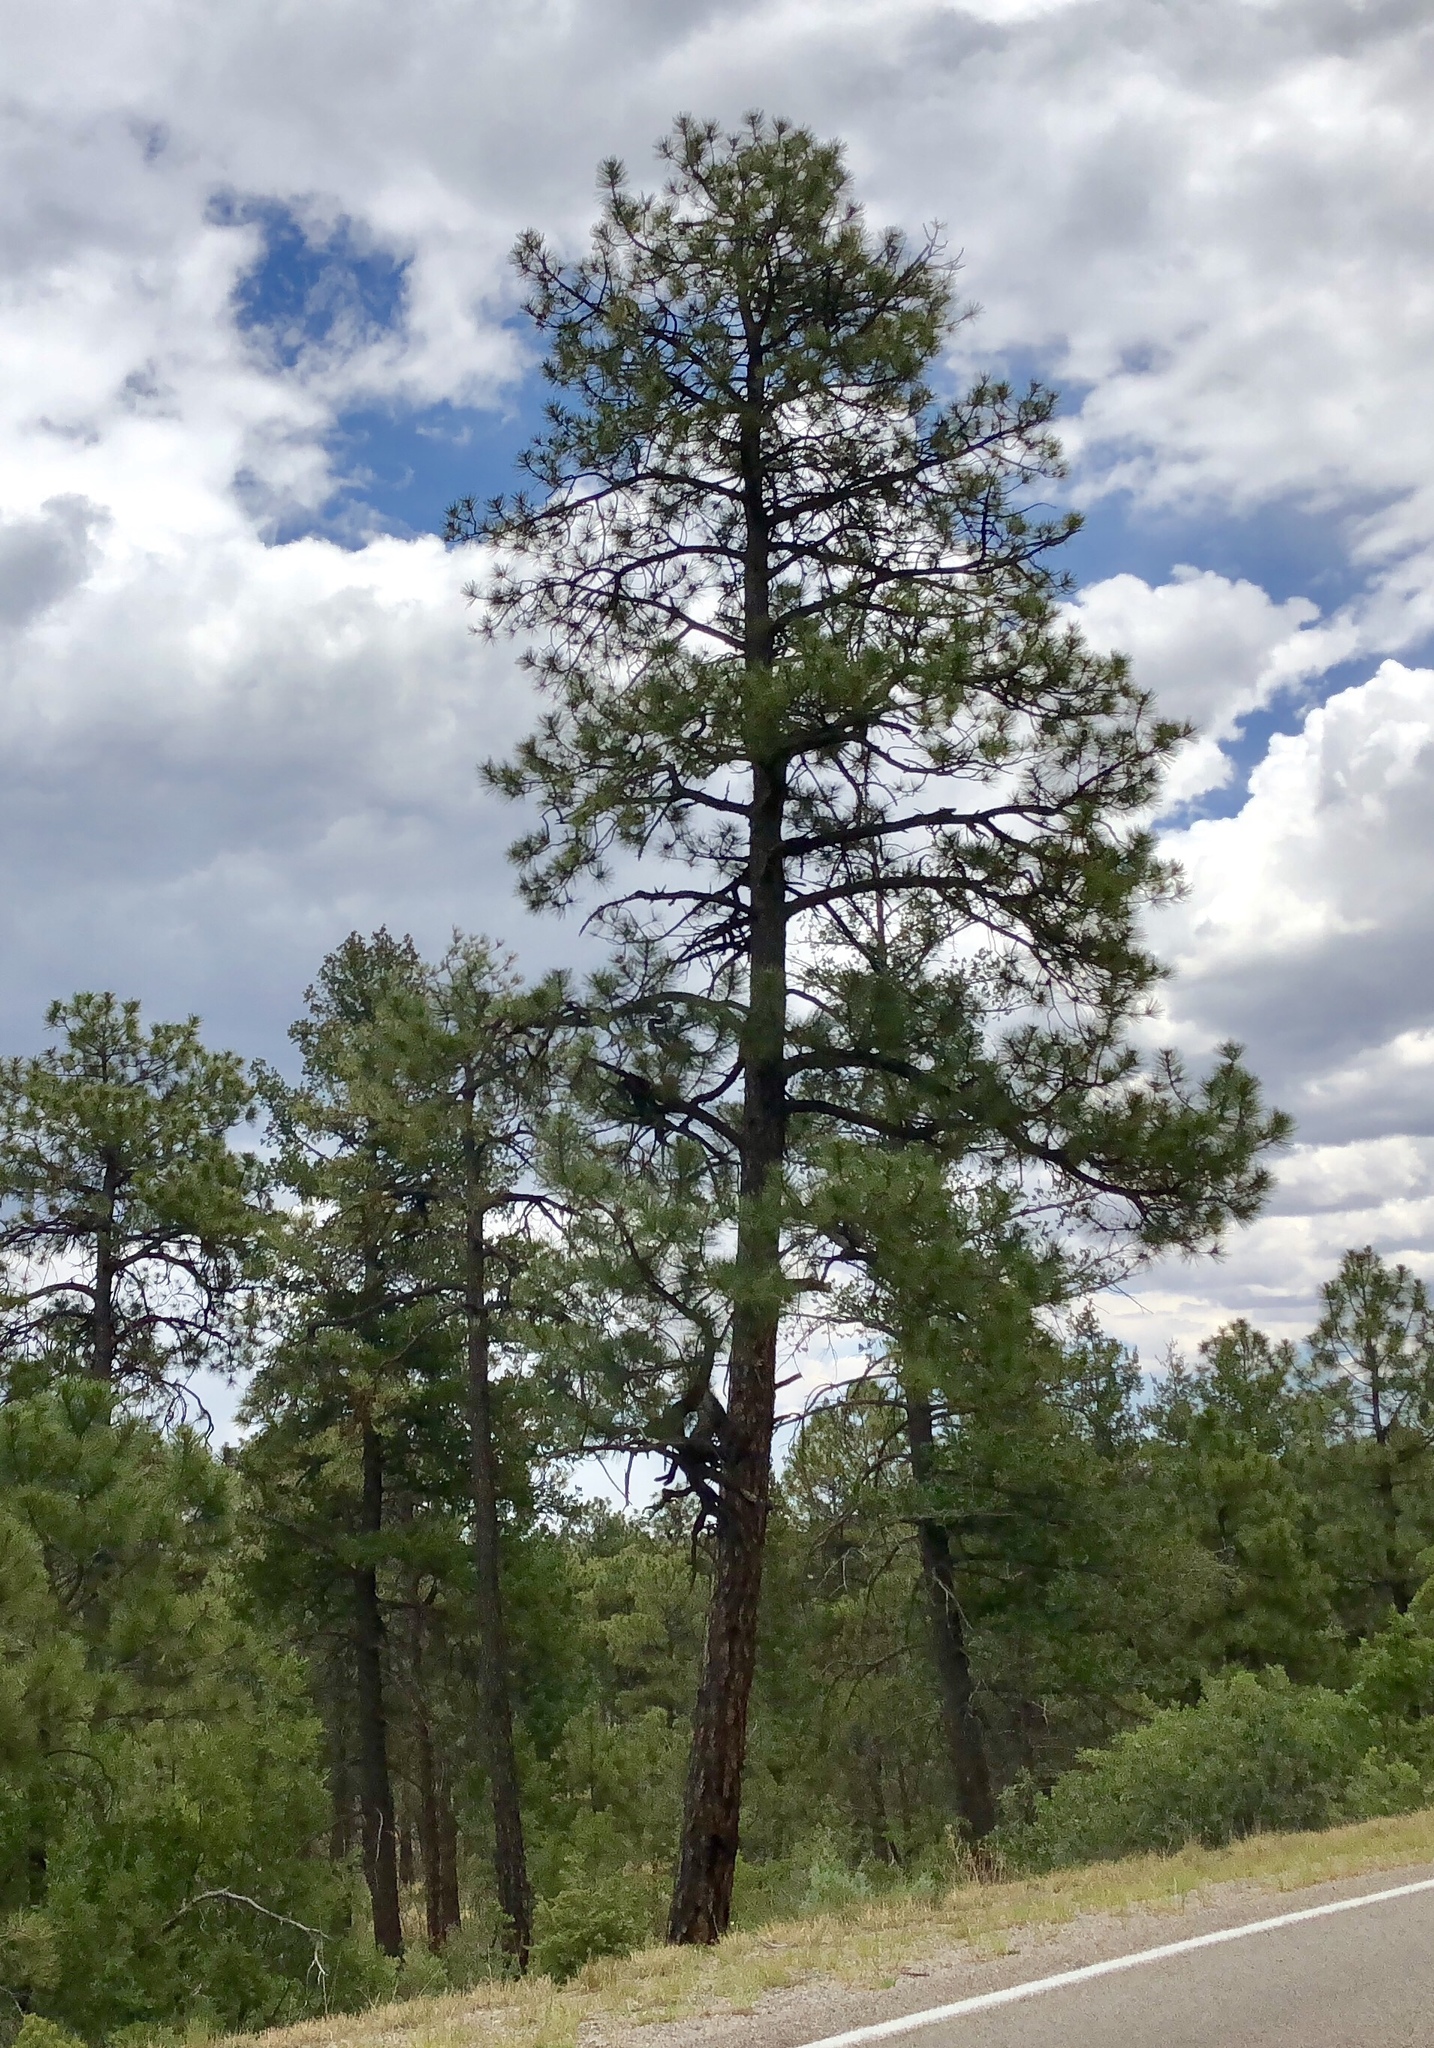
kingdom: Plantae
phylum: Tracheophyta
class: Pinopsida
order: Pinales
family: Pinaceae
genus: Pinus
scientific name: Pinus ponderosa
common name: Western yellow-pine
